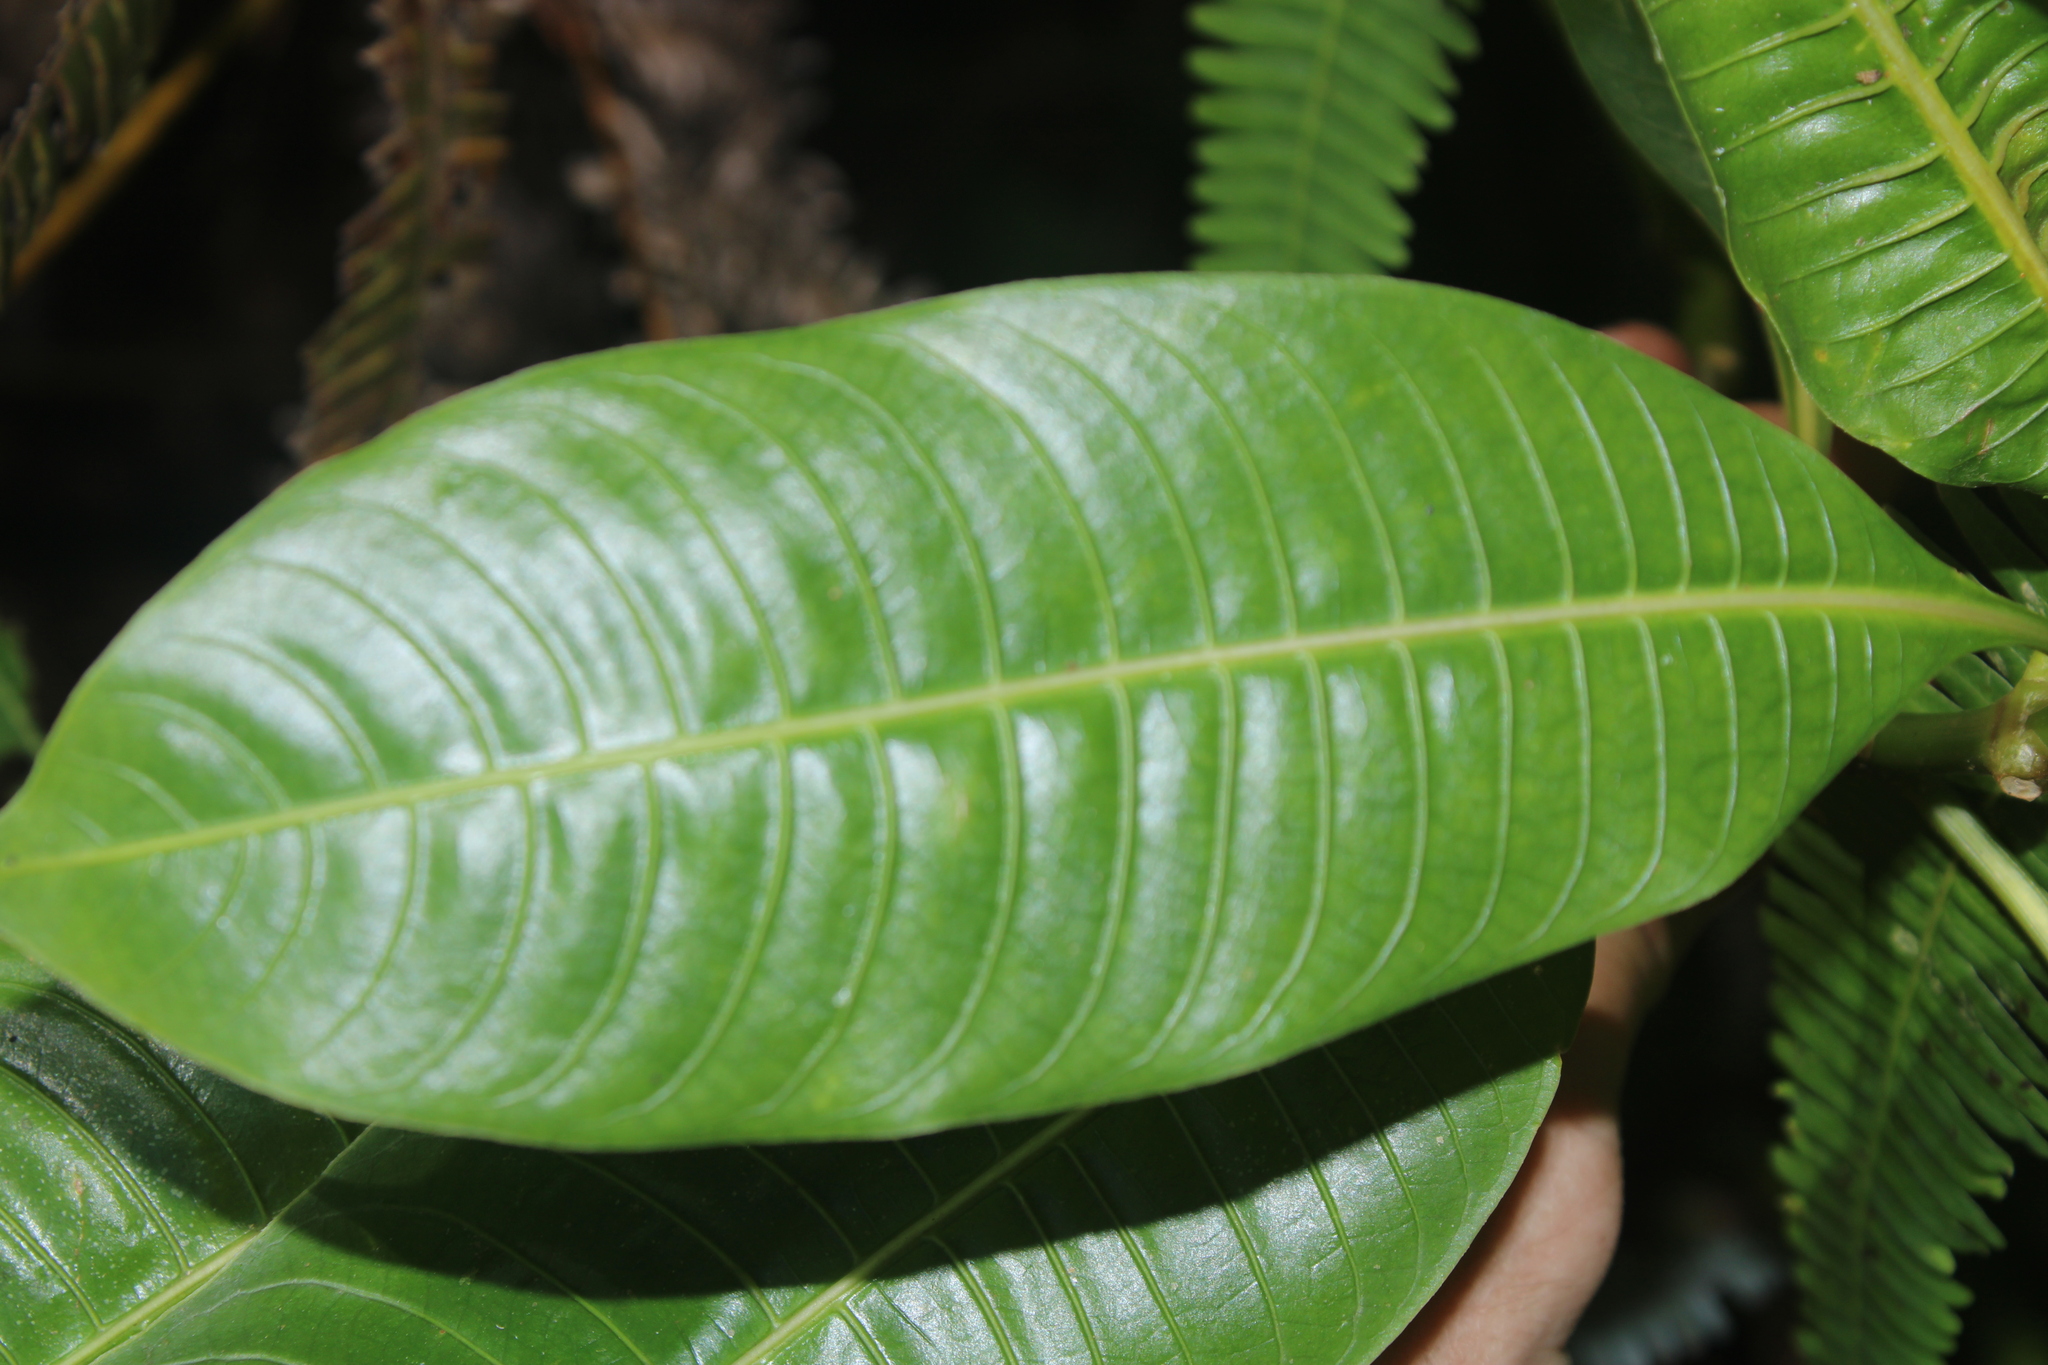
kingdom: Plantae
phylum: Tracheophyta
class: Magnoliopsida
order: Gentianales
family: Rubiaceae
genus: Palicourea
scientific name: Palicourea elata
